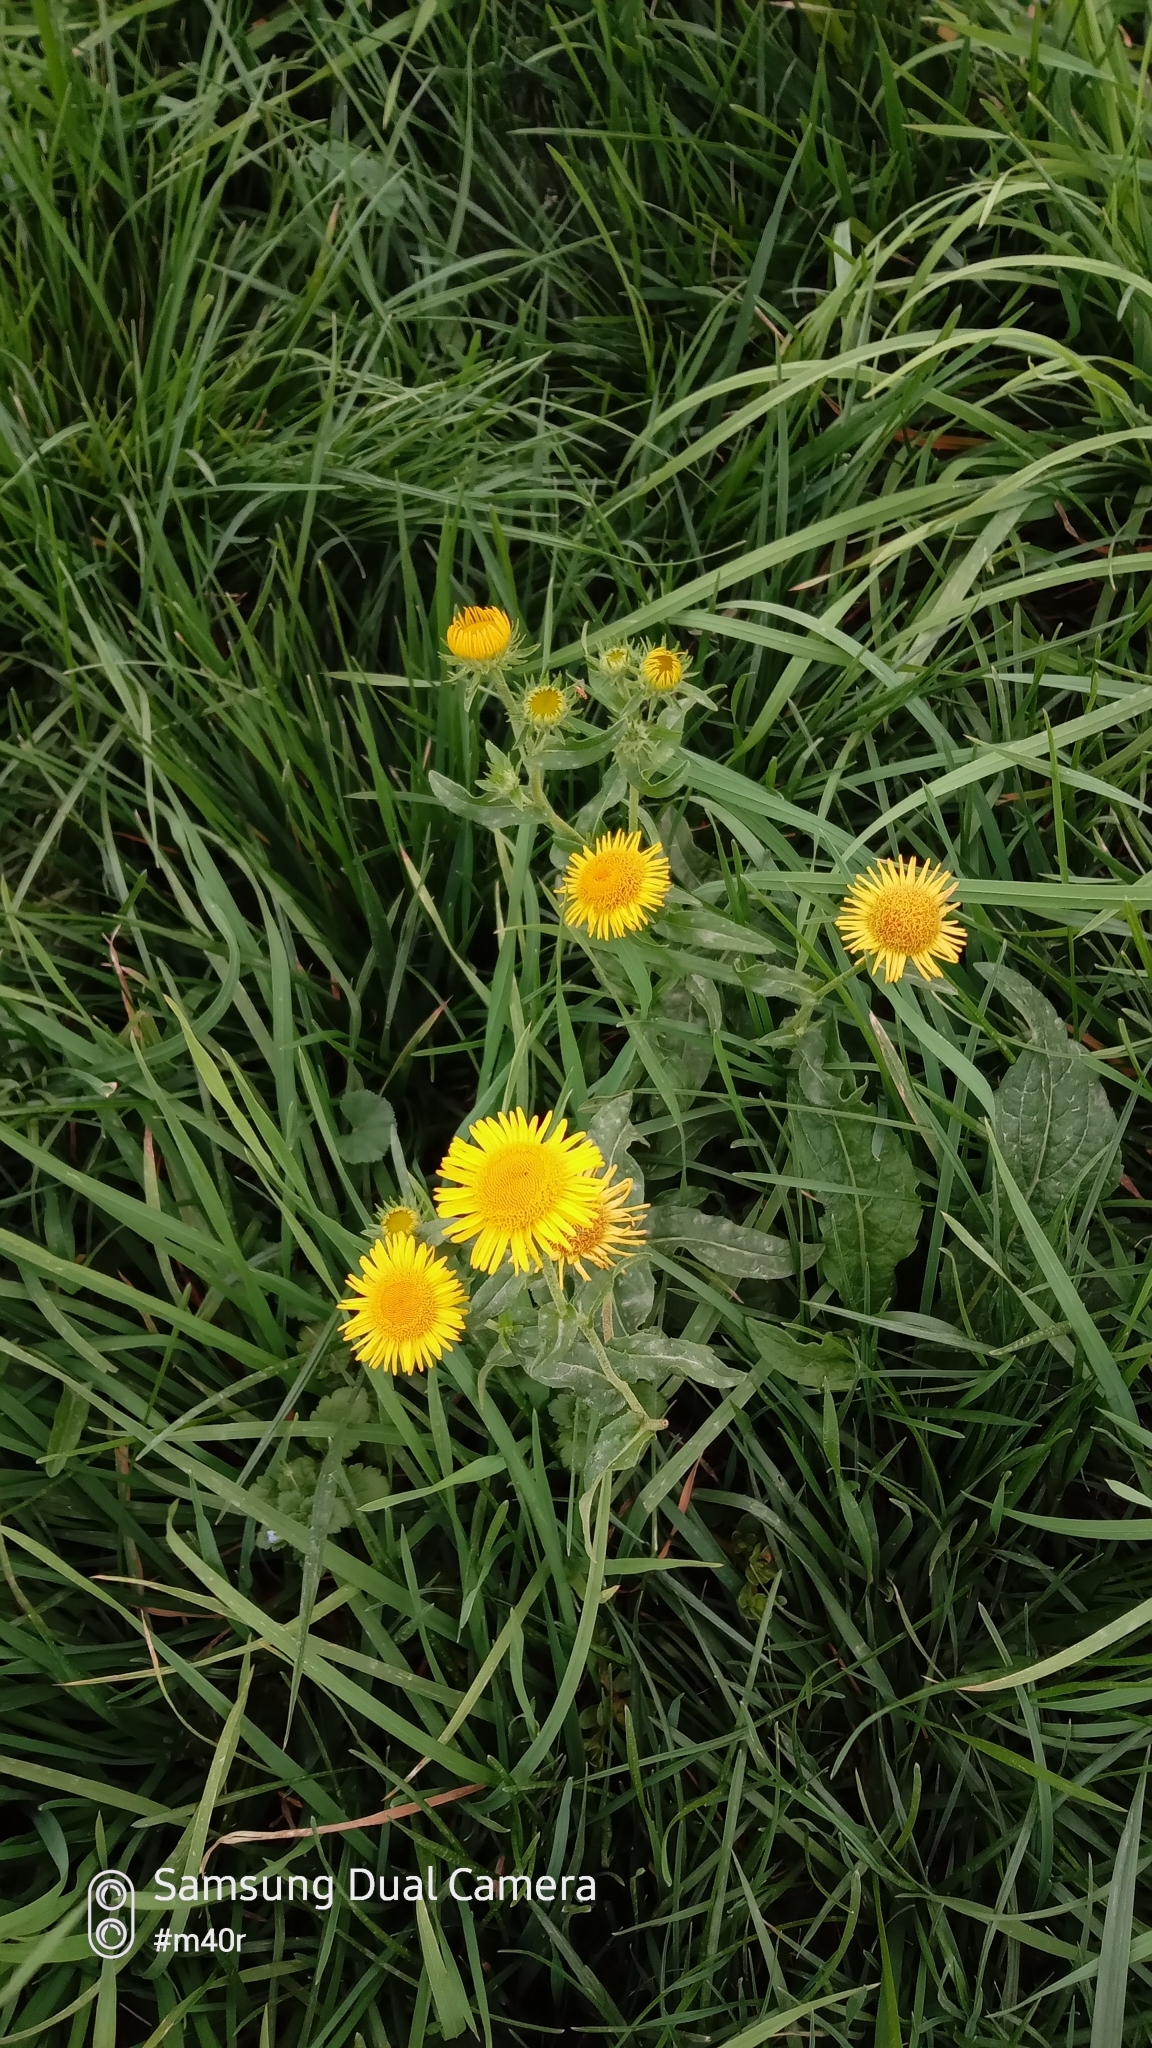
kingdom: Plantae
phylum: Tracheophyta
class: Magnoliopsida
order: Asterales
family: Asteraceae
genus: Pentanema
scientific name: Pentanema britannicum
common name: British elecampane
